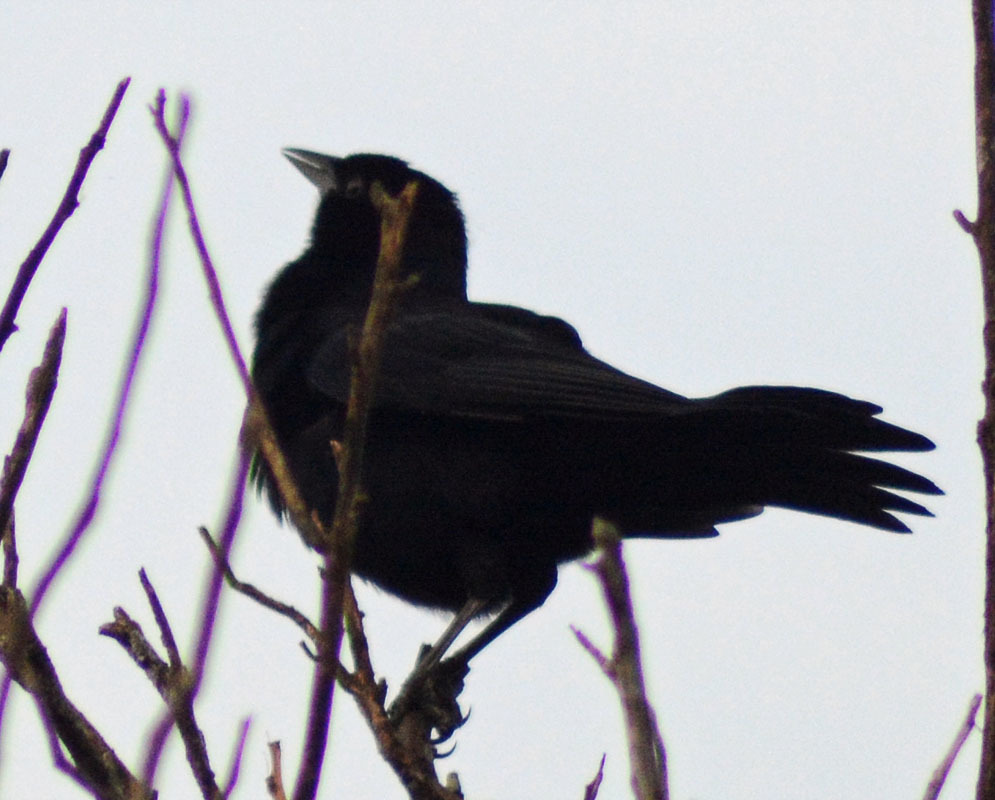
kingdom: Animalia
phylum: Chordata
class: Aves
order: Passeriformes
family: Icteridae
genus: Dives
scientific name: Dives dives
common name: Melodious blackbird
